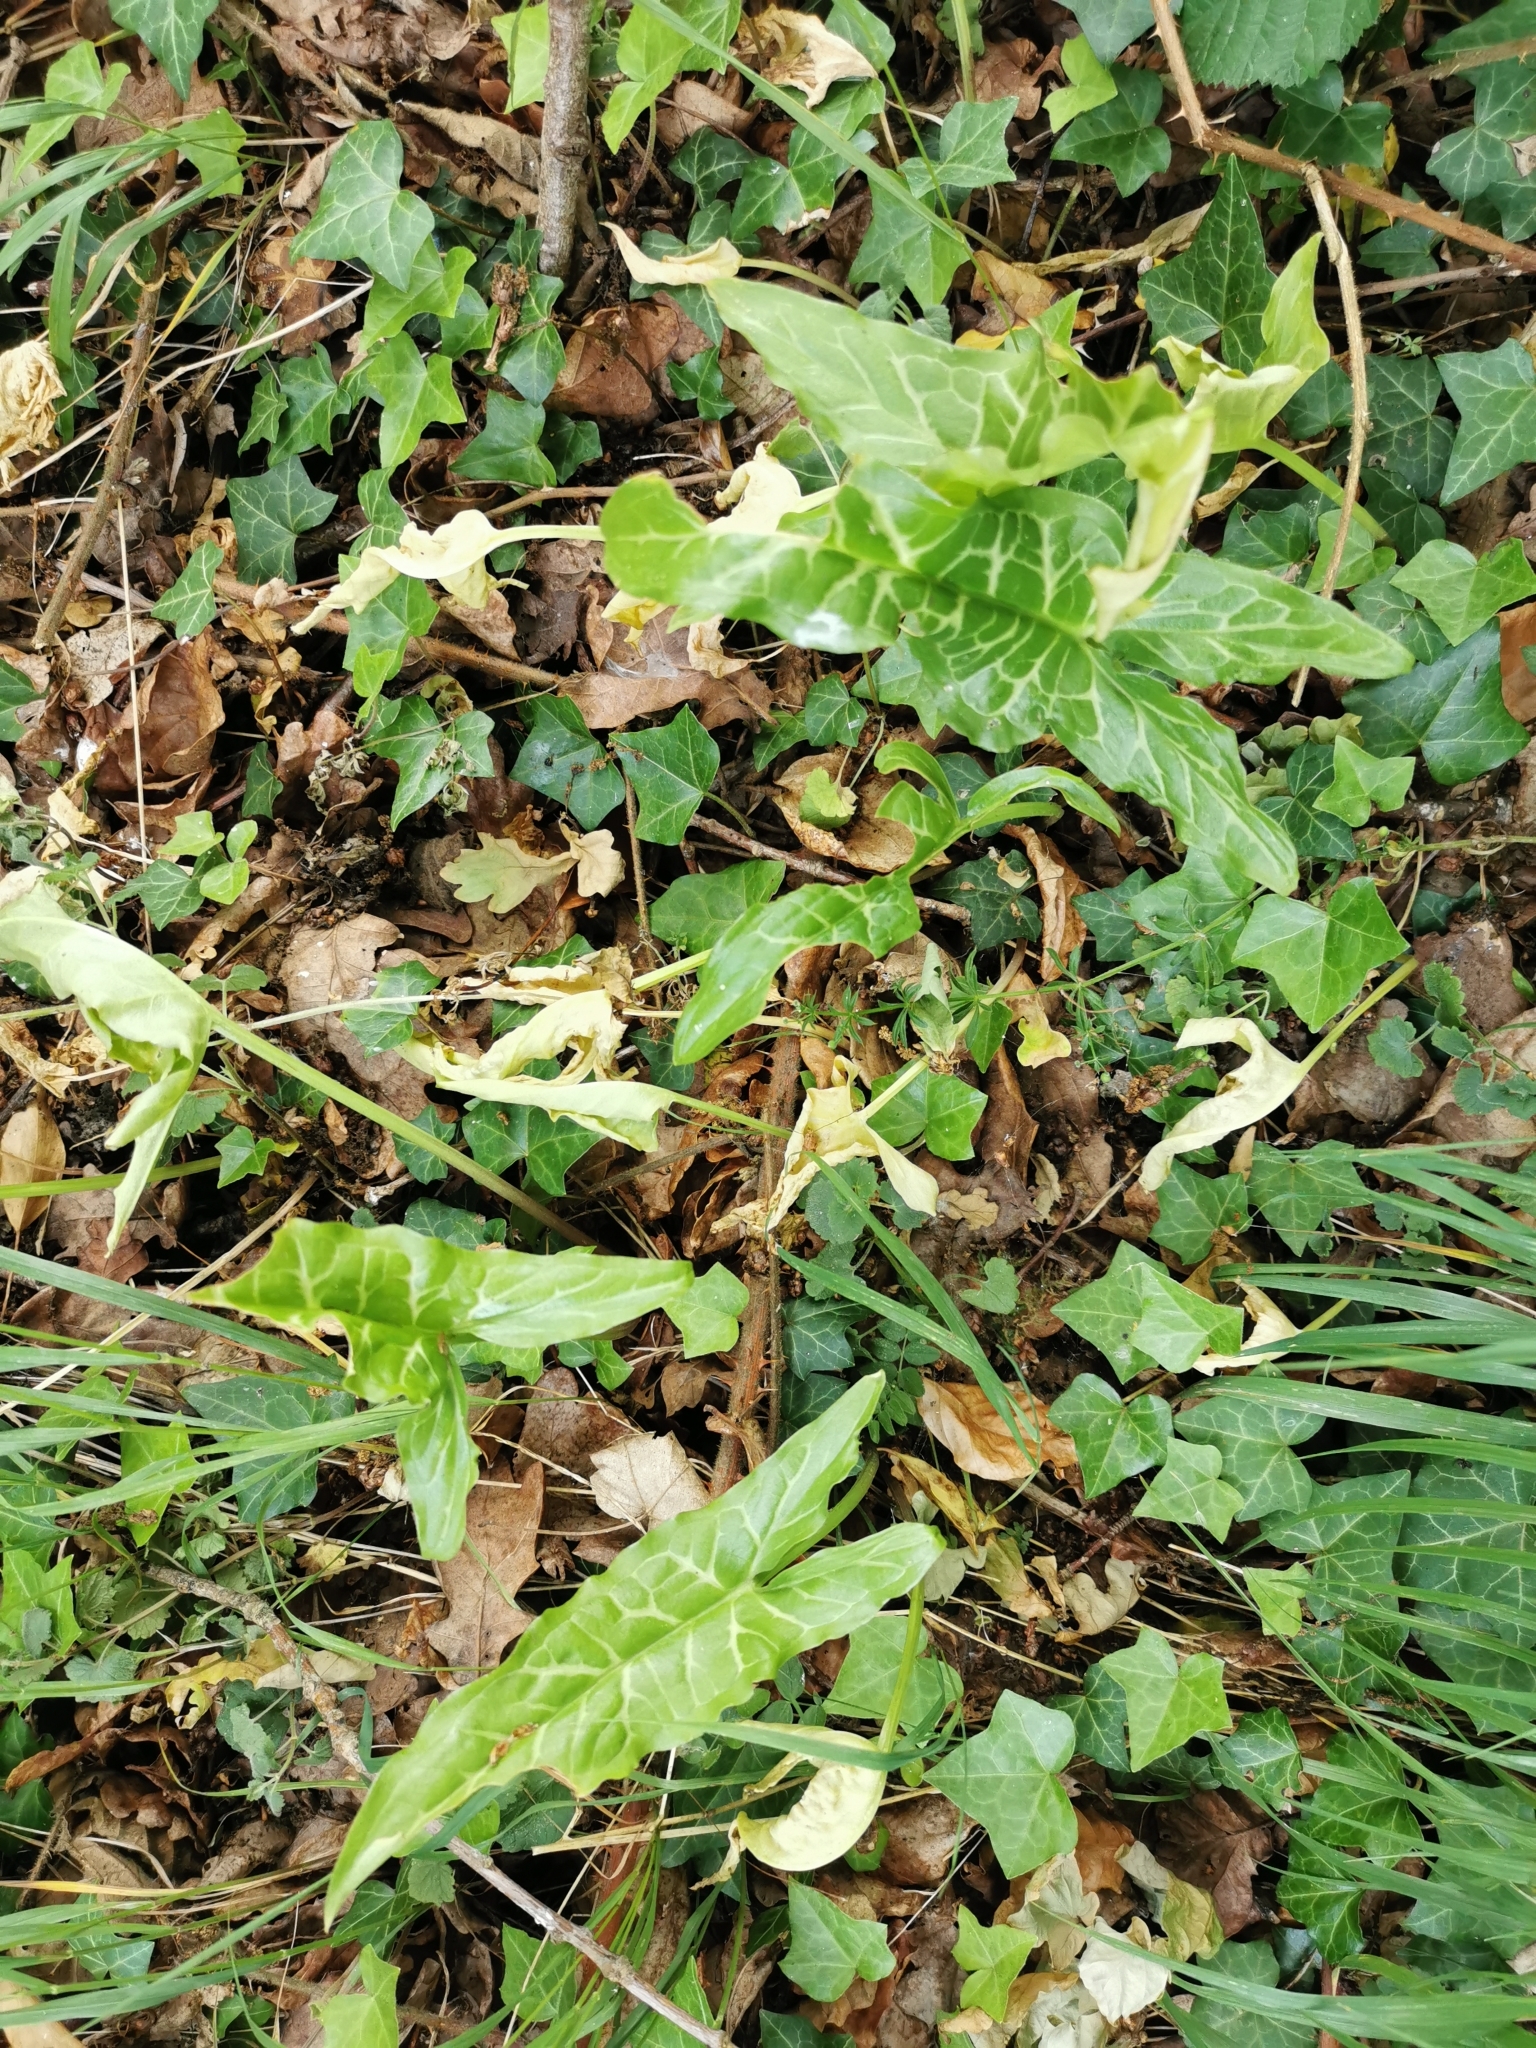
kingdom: Plantae
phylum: Tracheophyta
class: Liliopsida
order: Alismatales
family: Araceae
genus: Arum
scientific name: Arum italicum
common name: Italian lords-and-ladies
